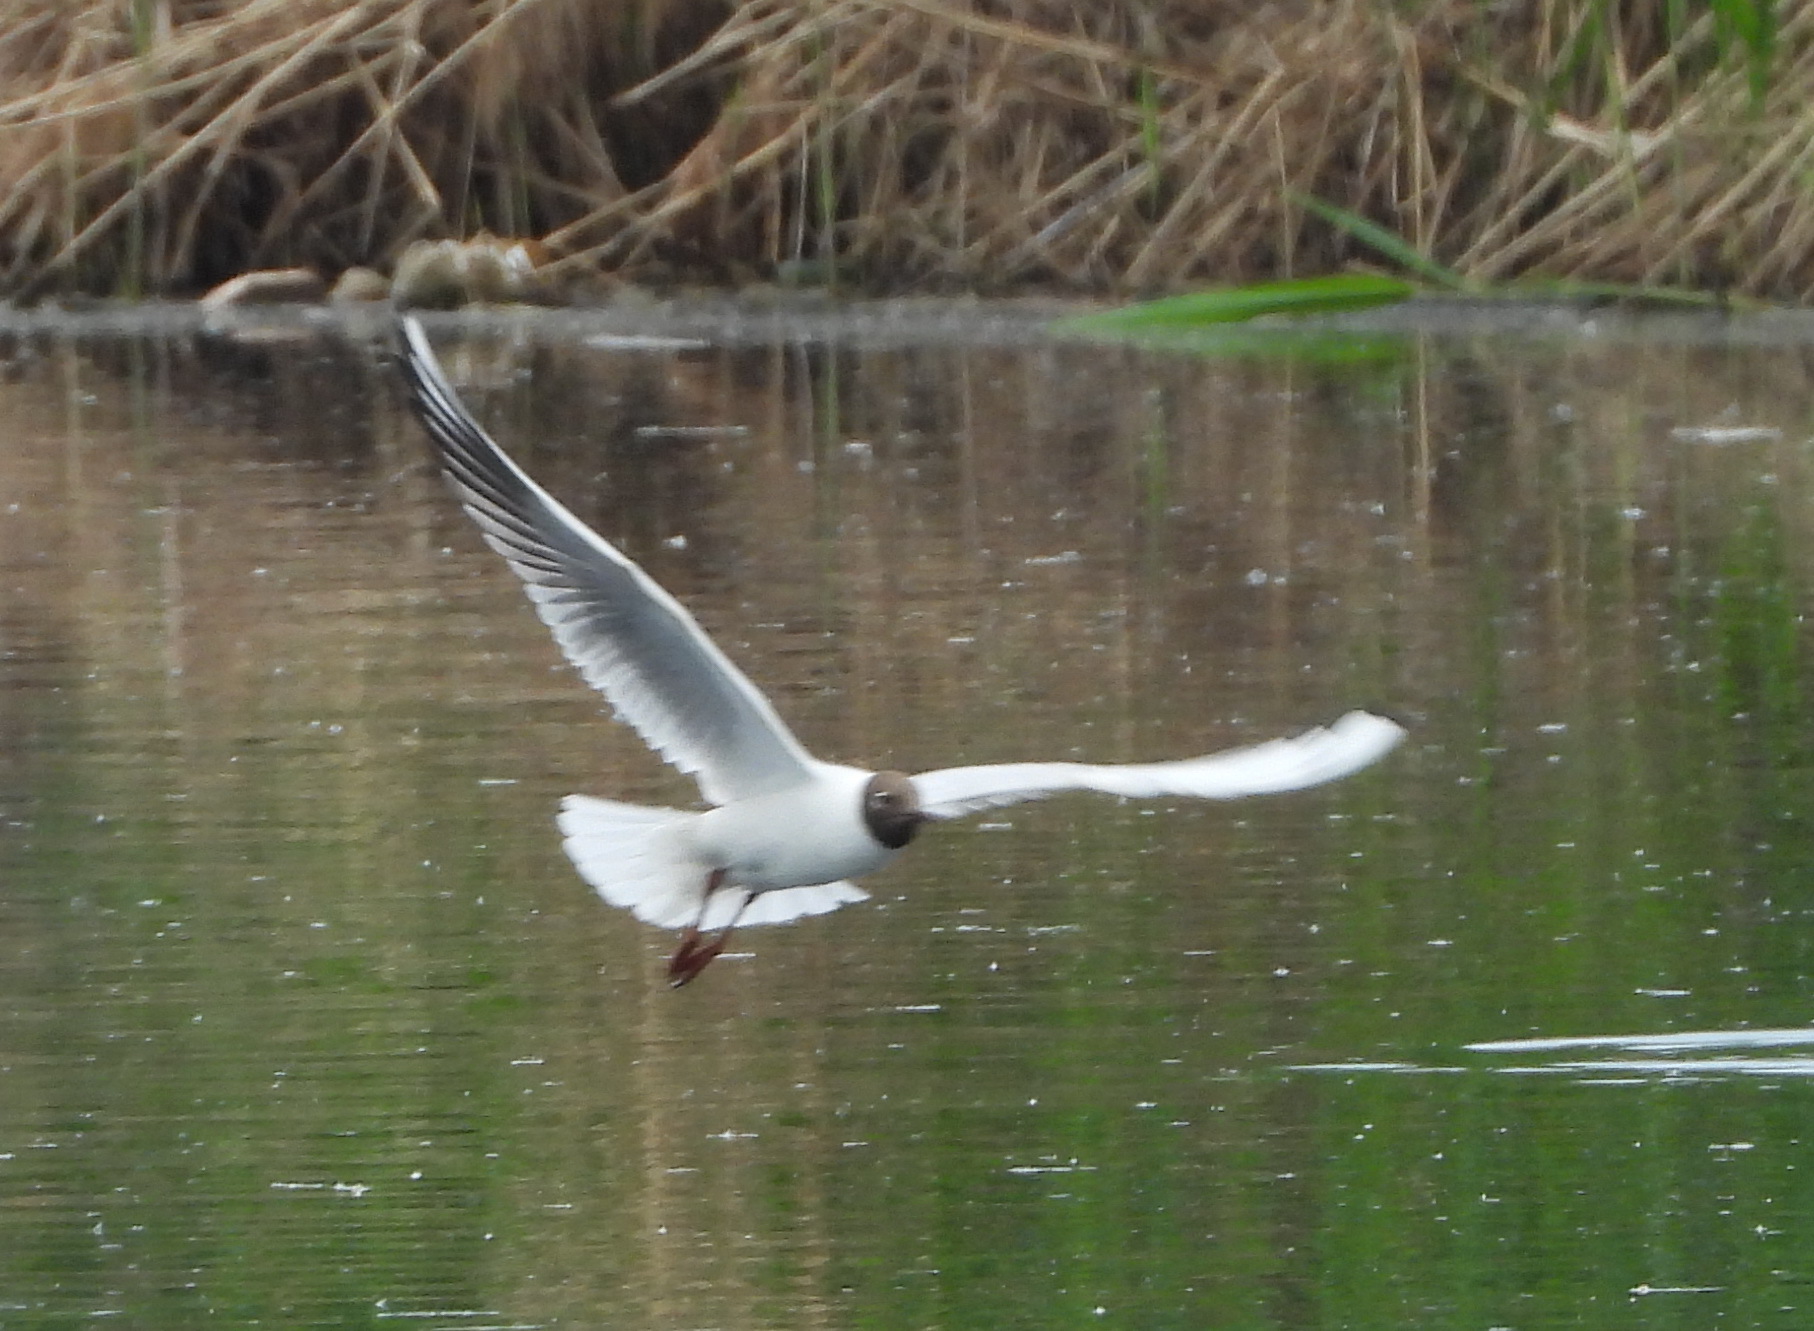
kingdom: Animalia
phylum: Chordata
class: Aves
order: Charadriiformes
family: Laridae
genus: Chroicocephalus
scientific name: Chroicocephalus ridibundus
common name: Black-headed gull
